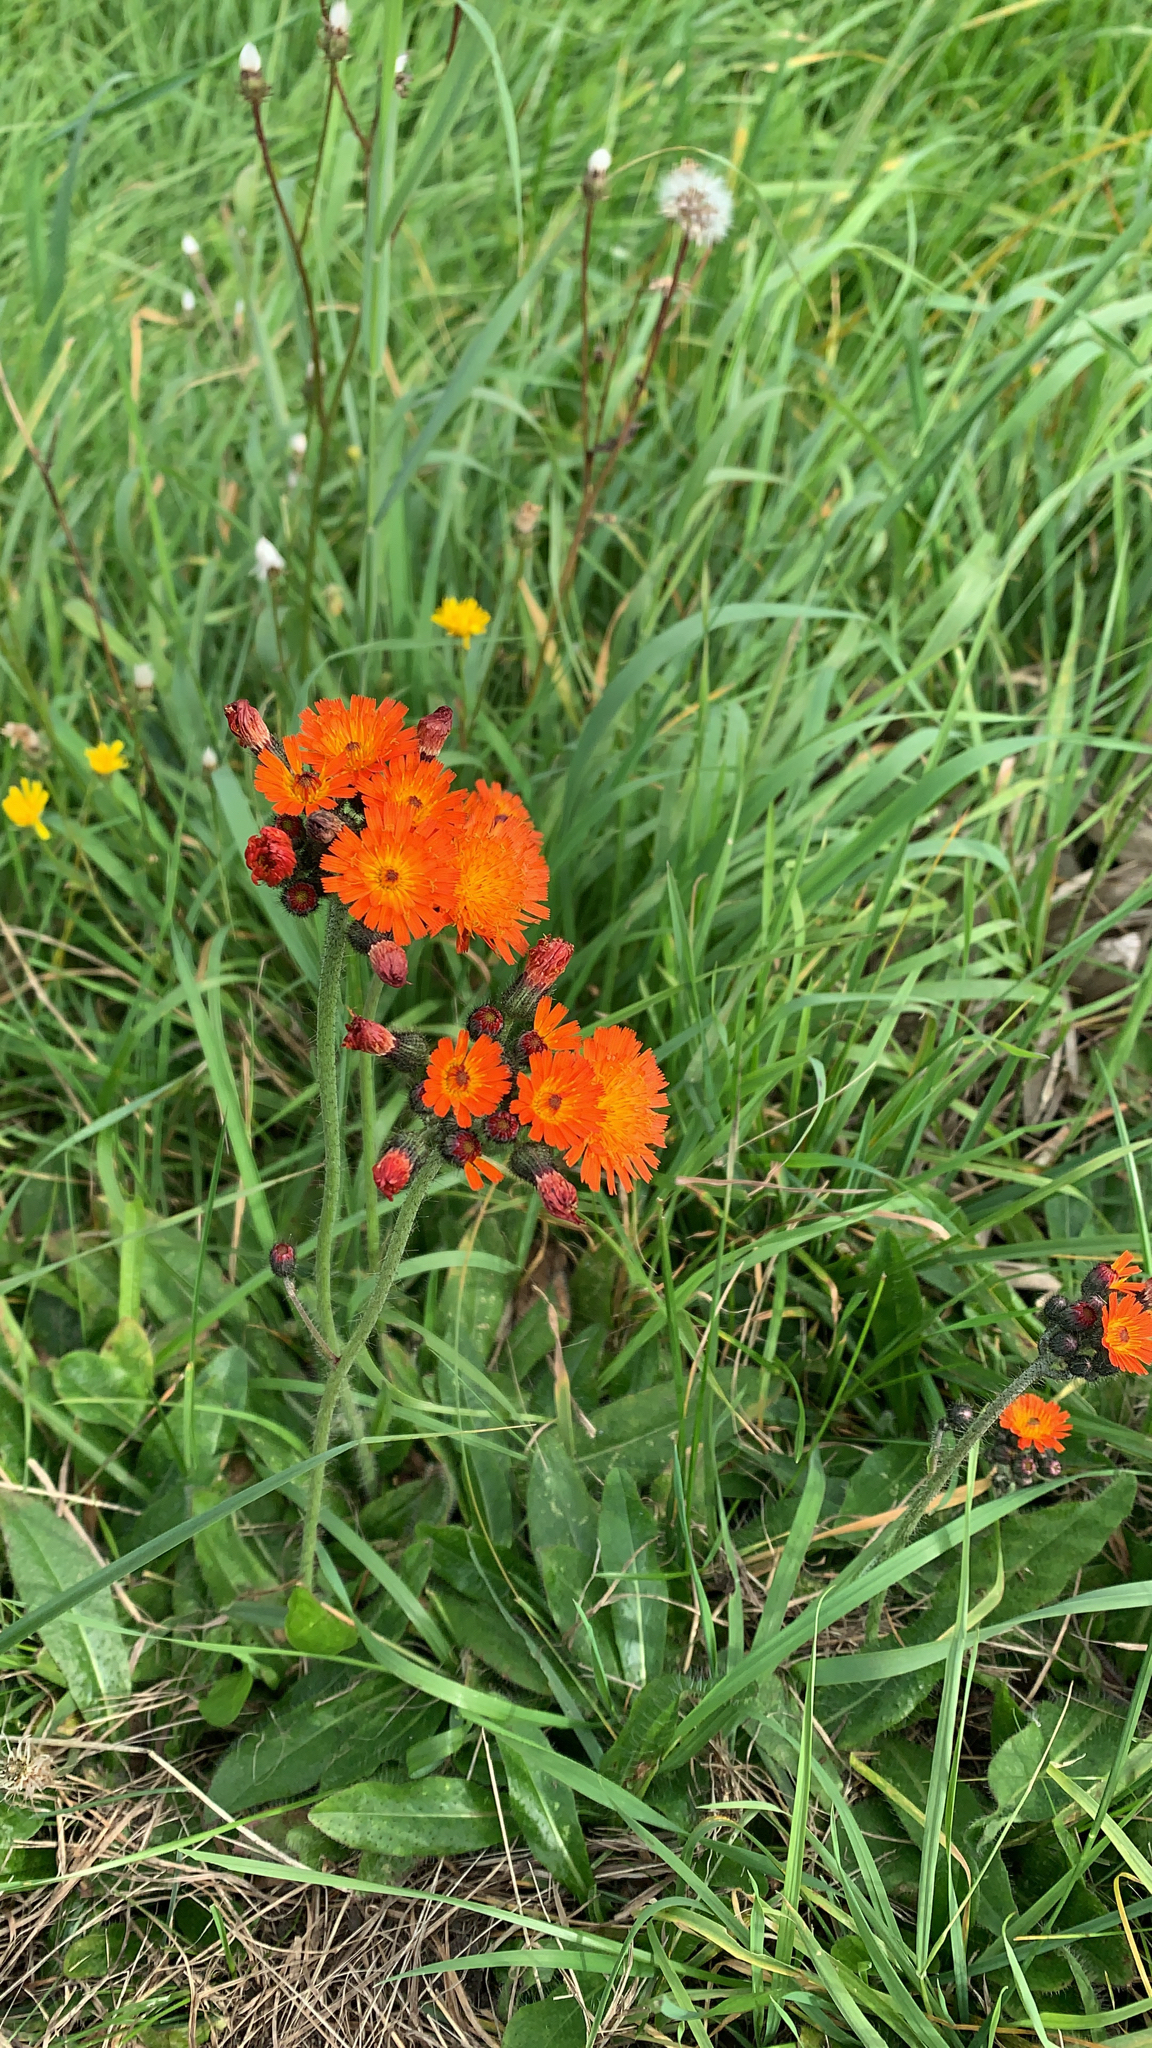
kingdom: Plantae
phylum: Tracheophyta
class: Magnoliopsida
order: Asterales
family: Asteraceae
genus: Pilosella
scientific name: Pilosella aurantiaca
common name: Fox-and-cubs
